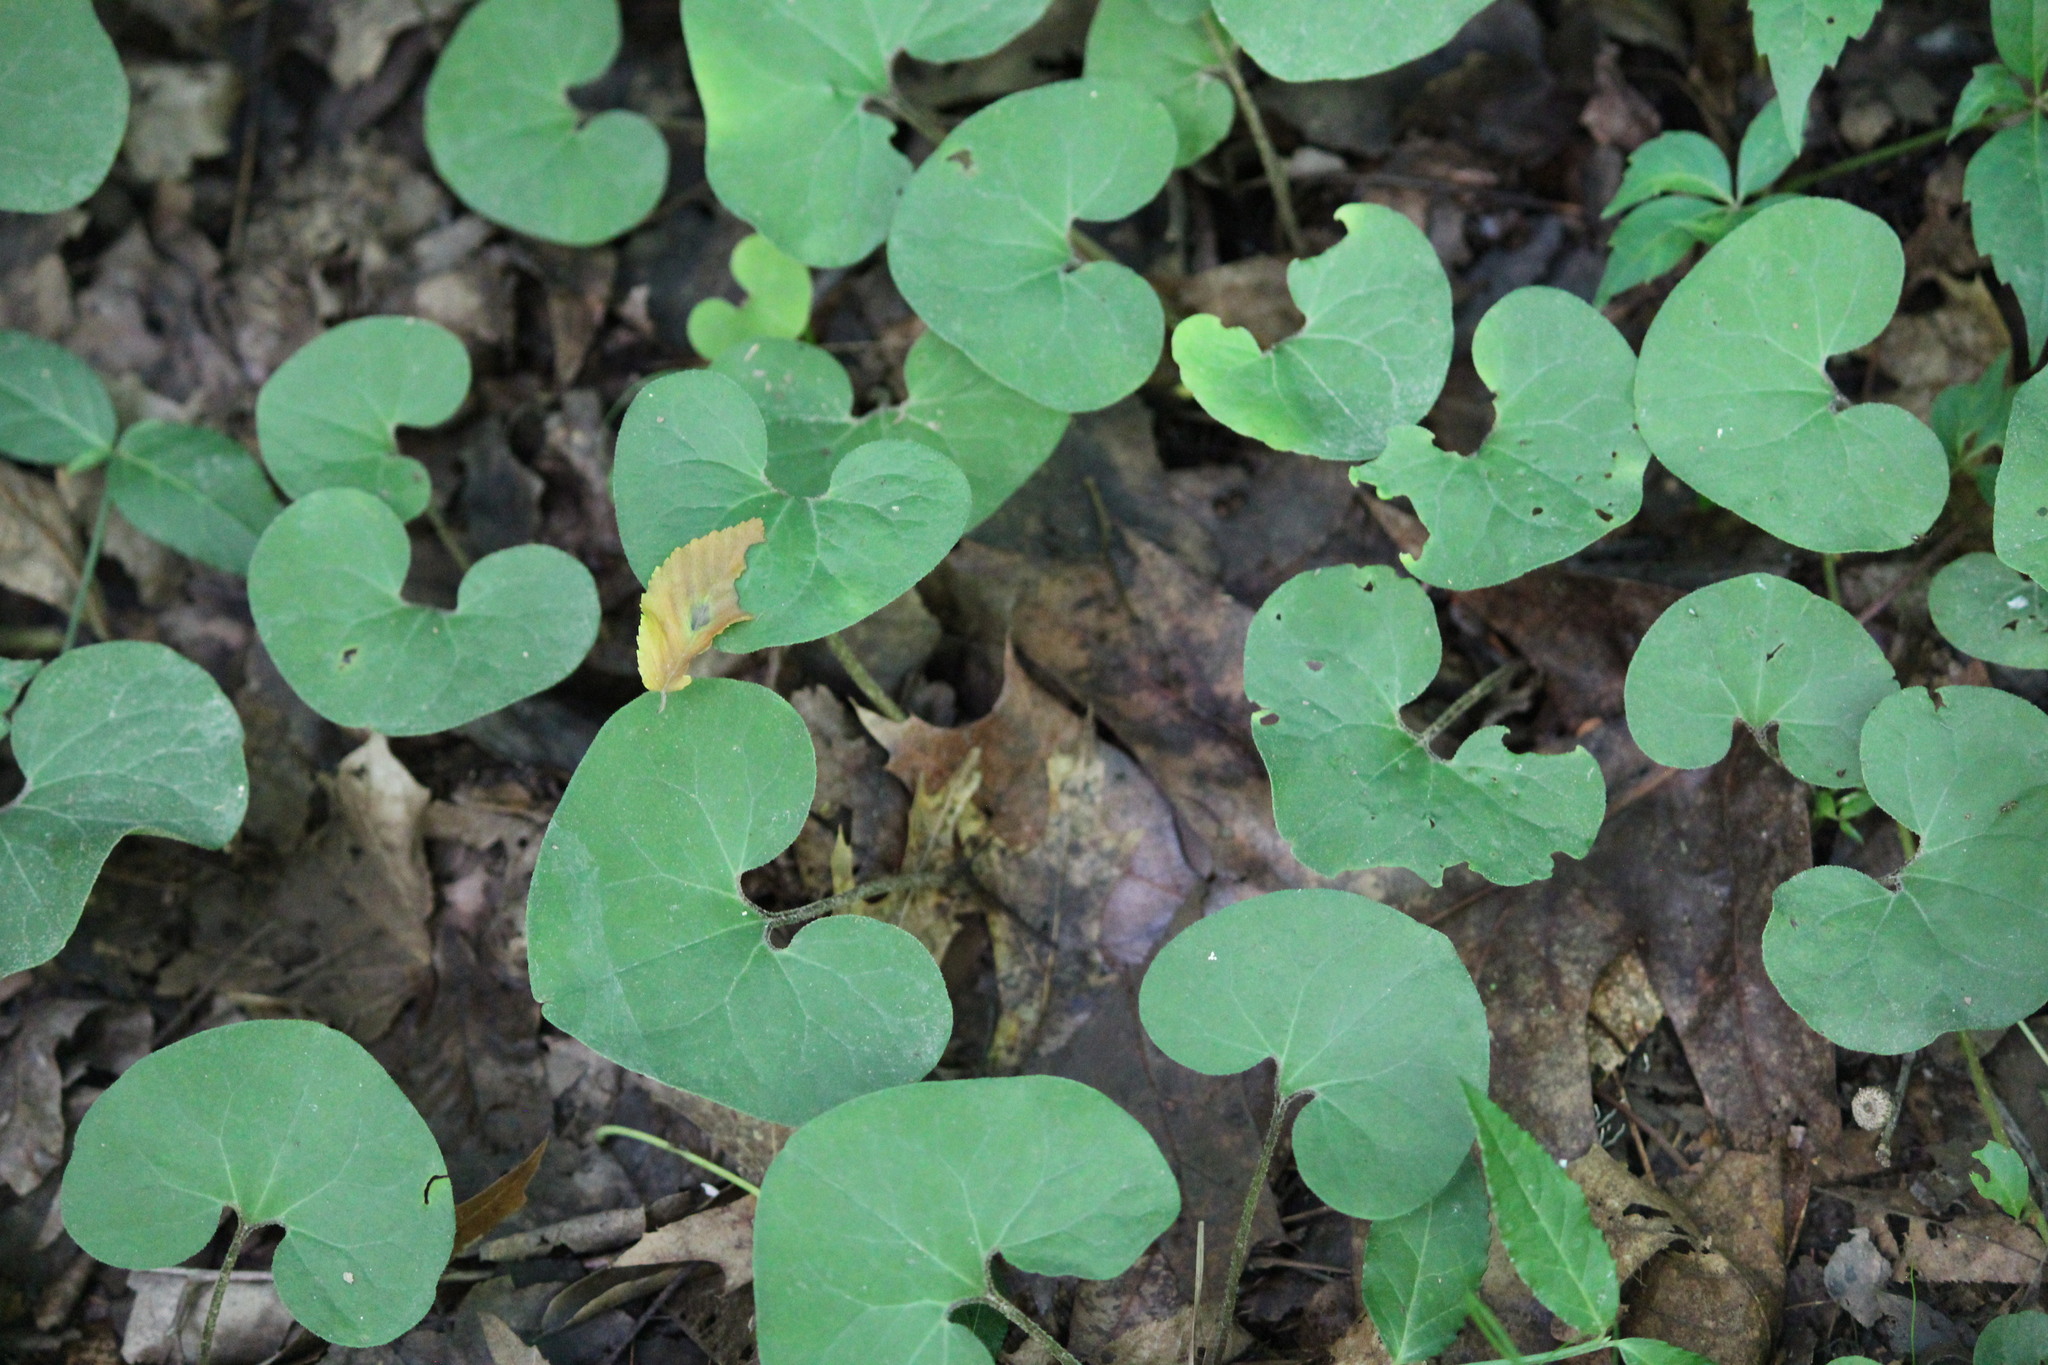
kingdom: Plantae
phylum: Tracheophyta
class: Magnoliopsida
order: Piperales
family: Aristolochiaceae
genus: Asarum
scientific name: Asarum canadense
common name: Wild ginger
